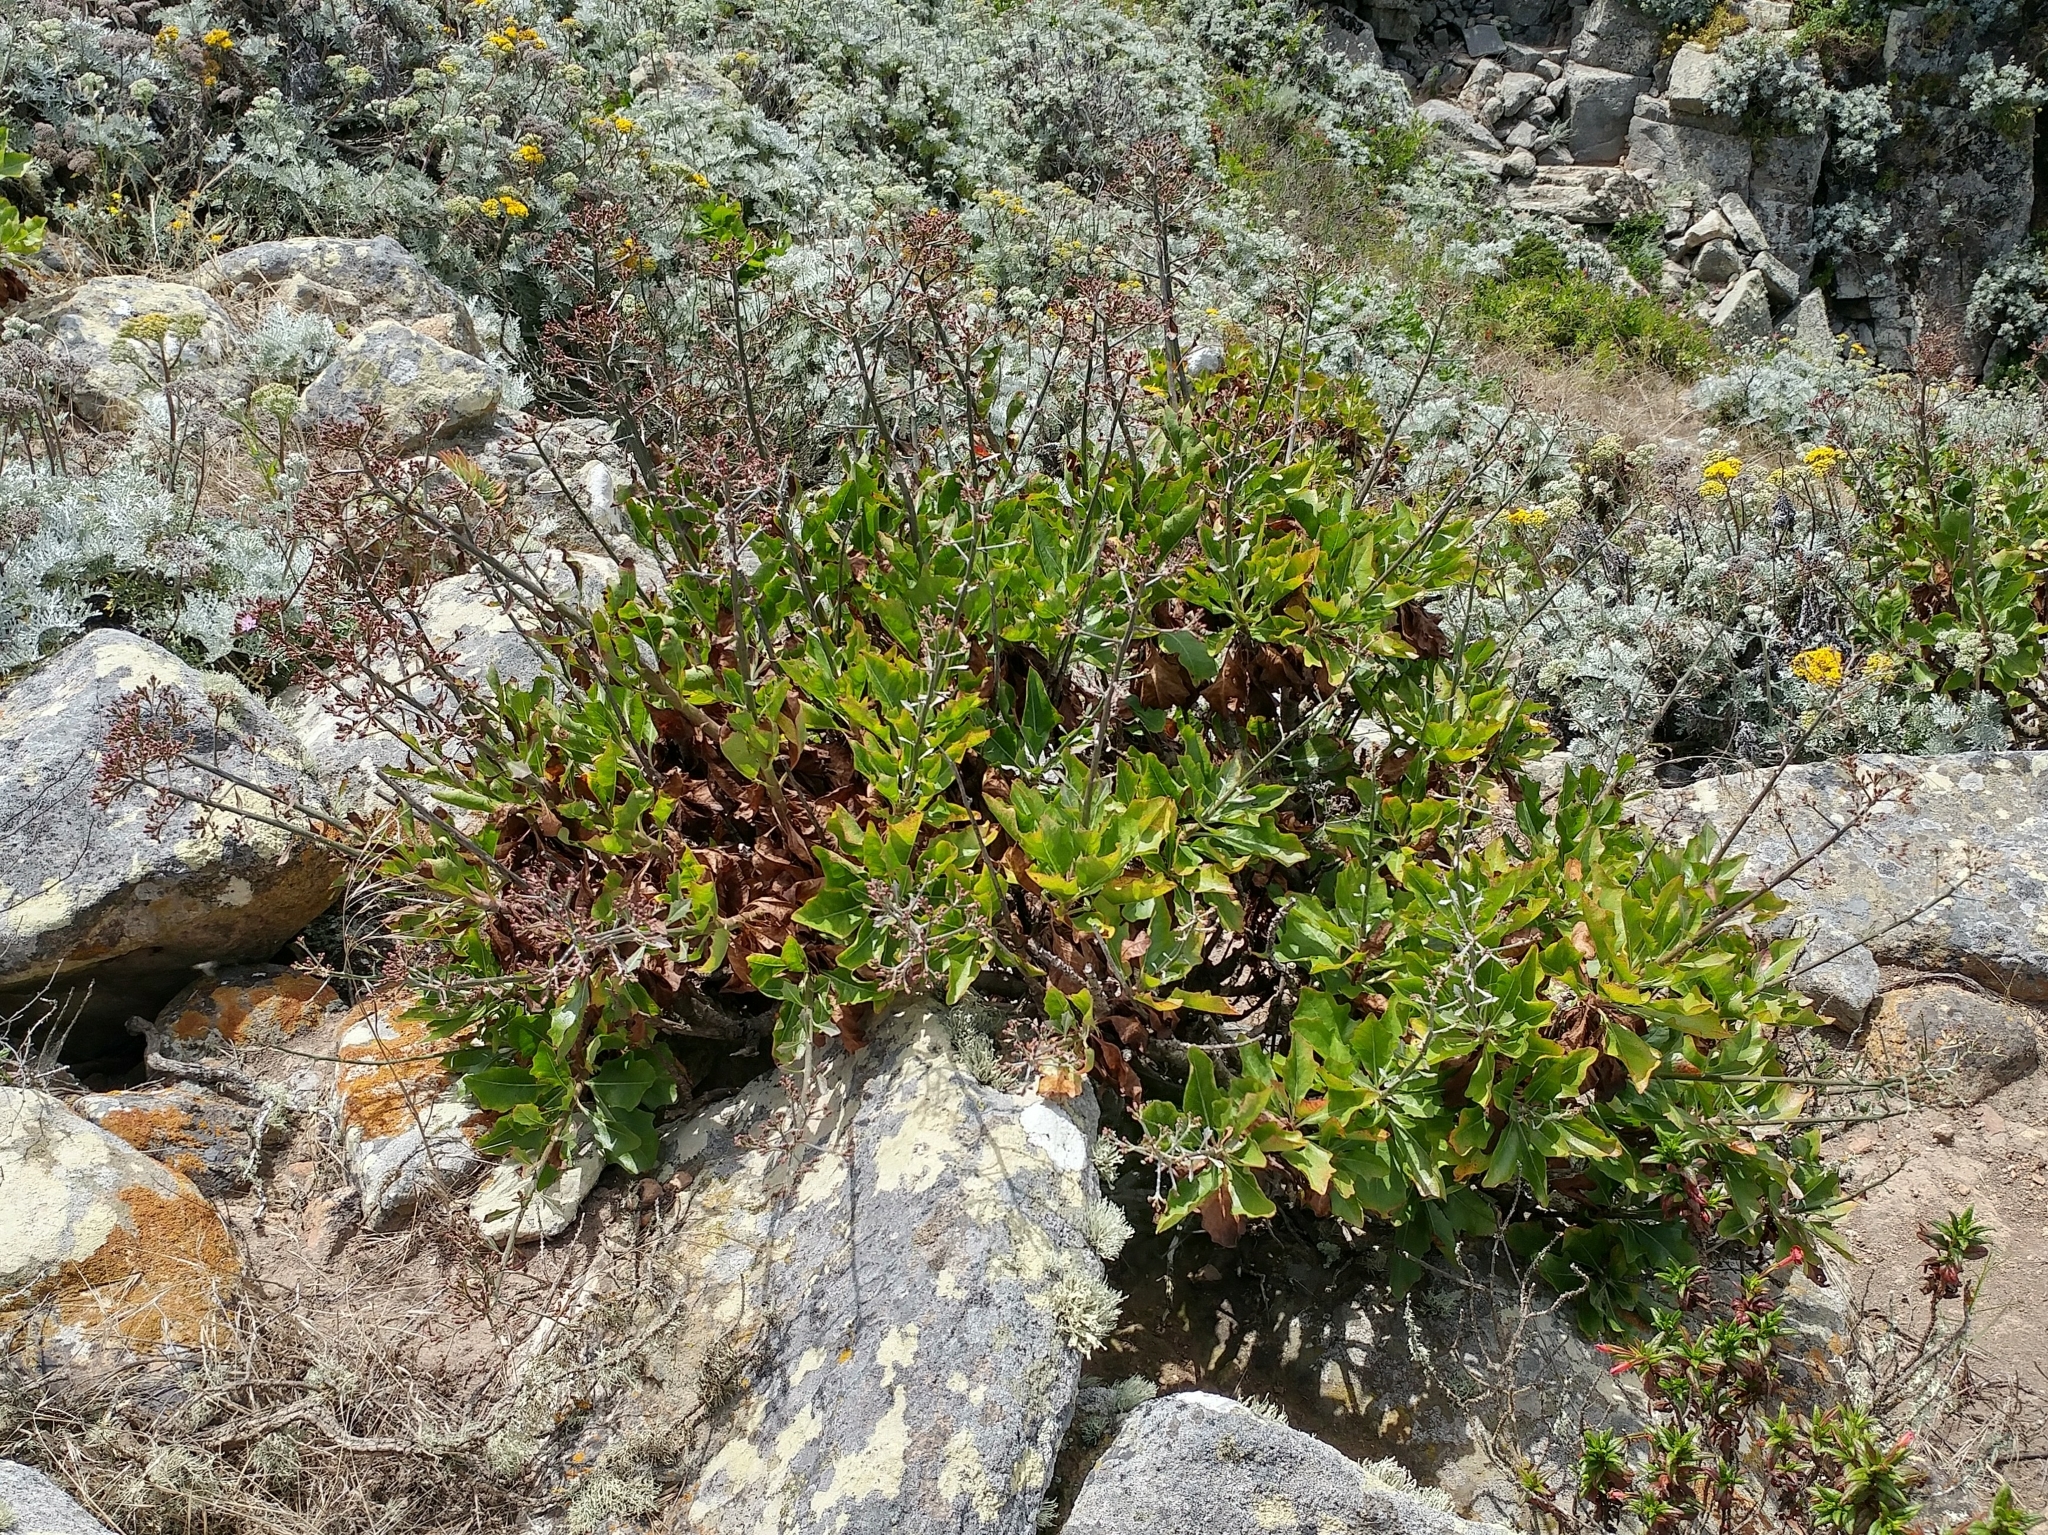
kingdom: Plantae
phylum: Tracheophyta
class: Magnoliopsida
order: Asterales
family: Asteraceae
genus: Munzothamnus
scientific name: Munzothamnus blairii
